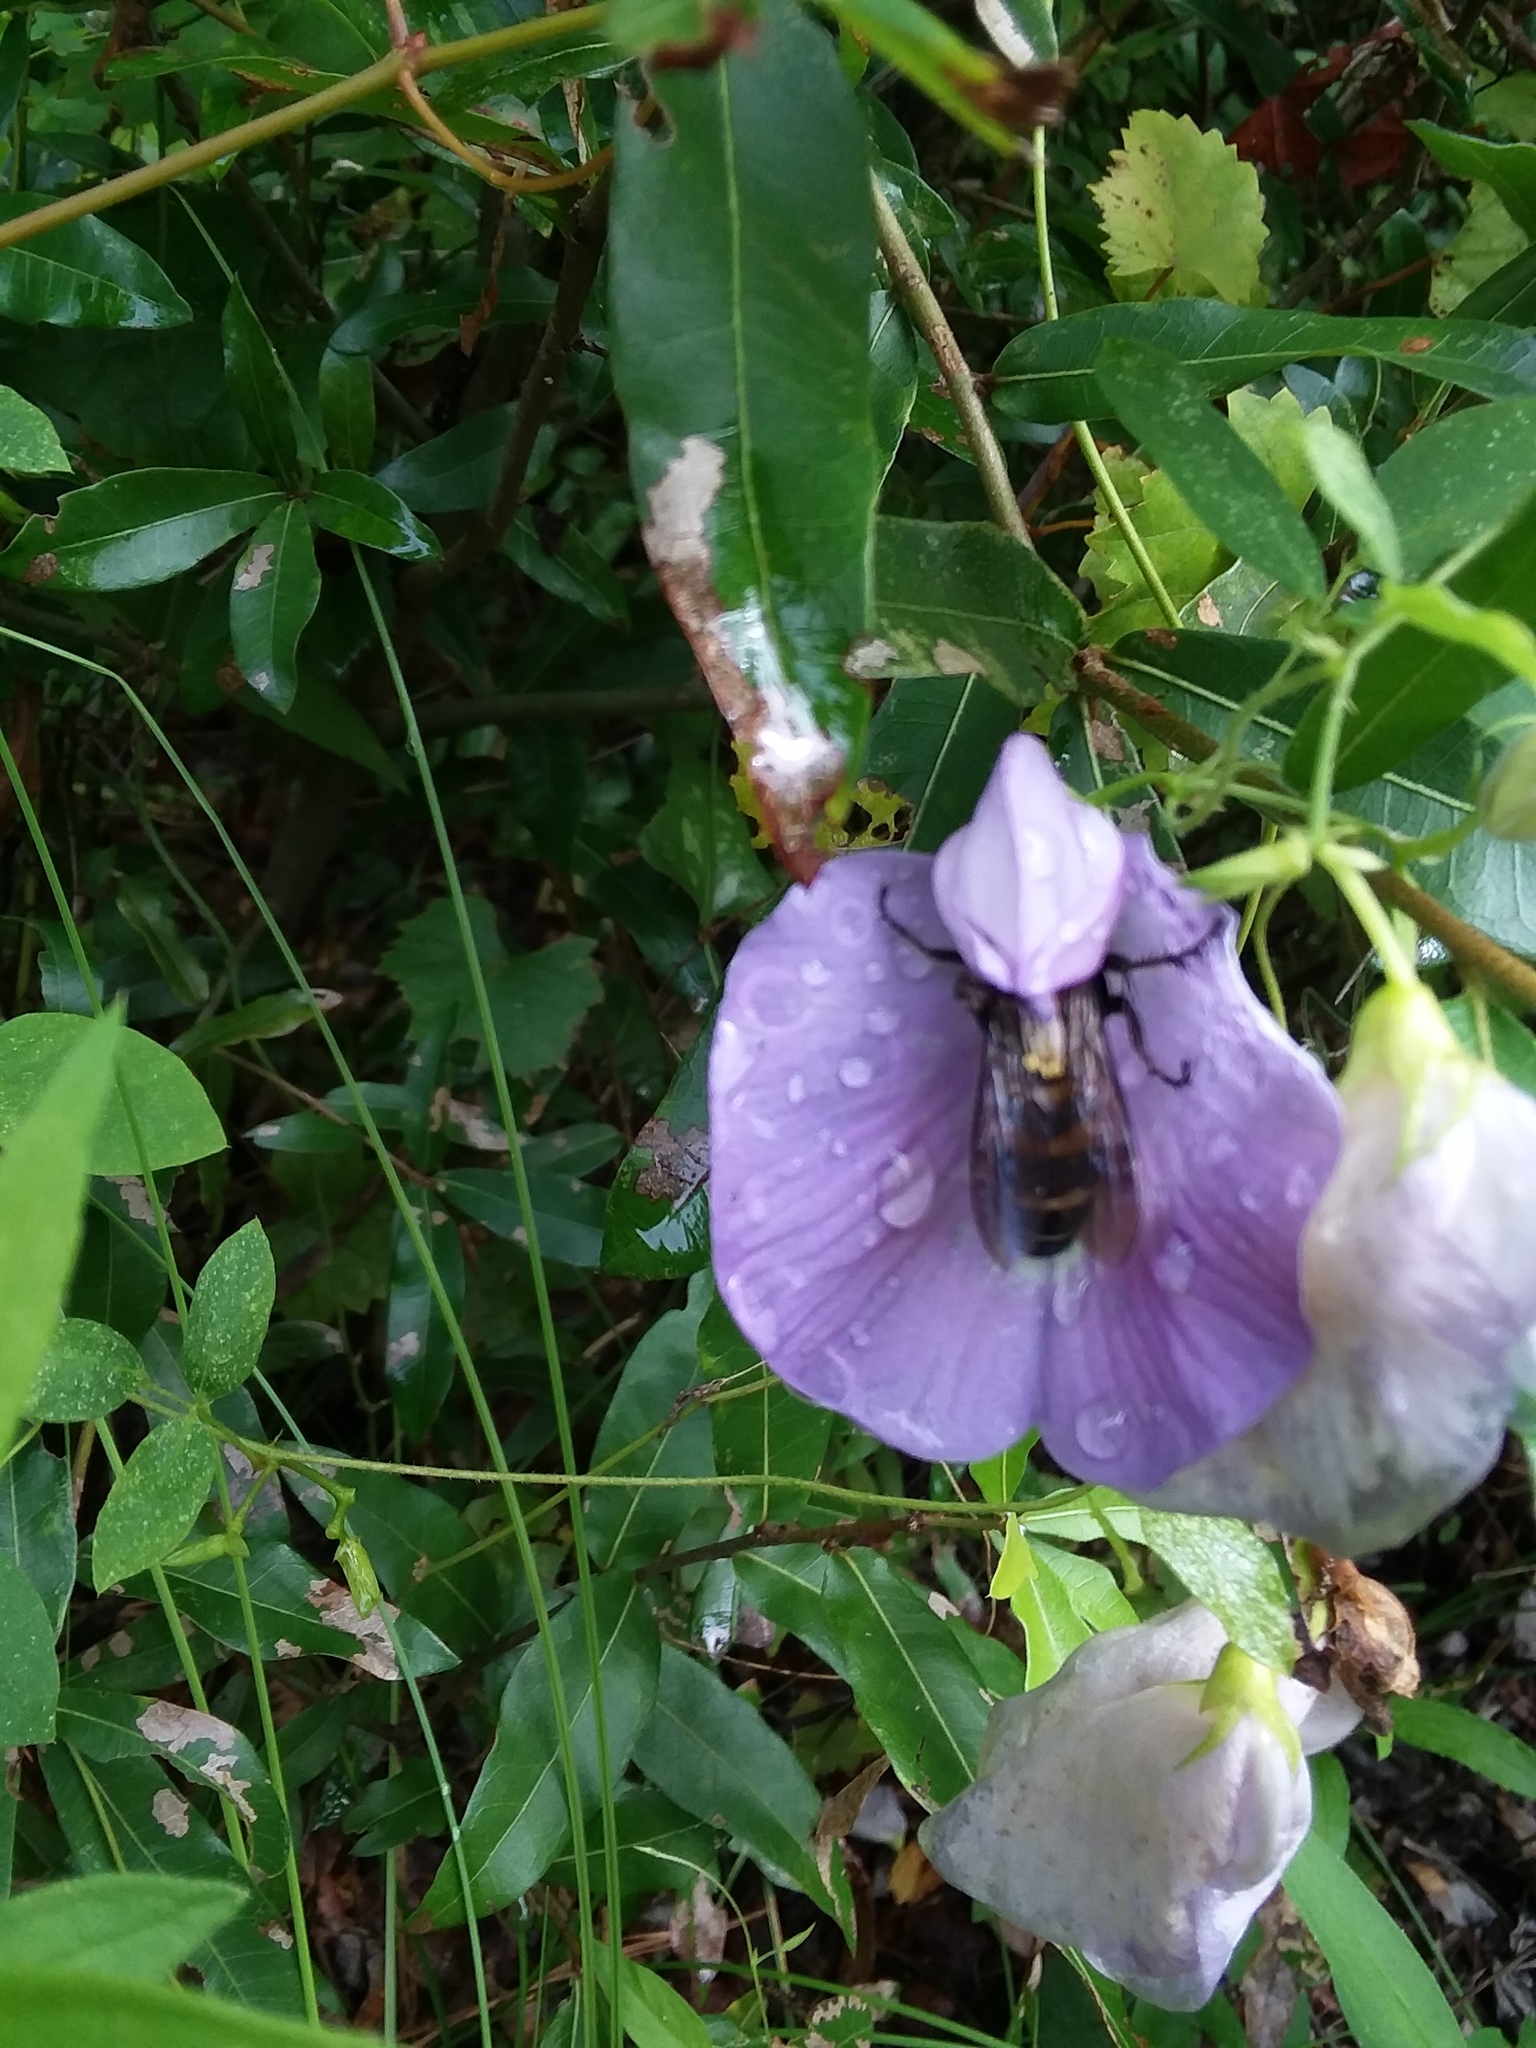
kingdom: Animalia
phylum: Arthropoda
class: Insecta
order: Hymenoptera
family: Scoliidae
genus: Dielis
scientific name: Dielis
